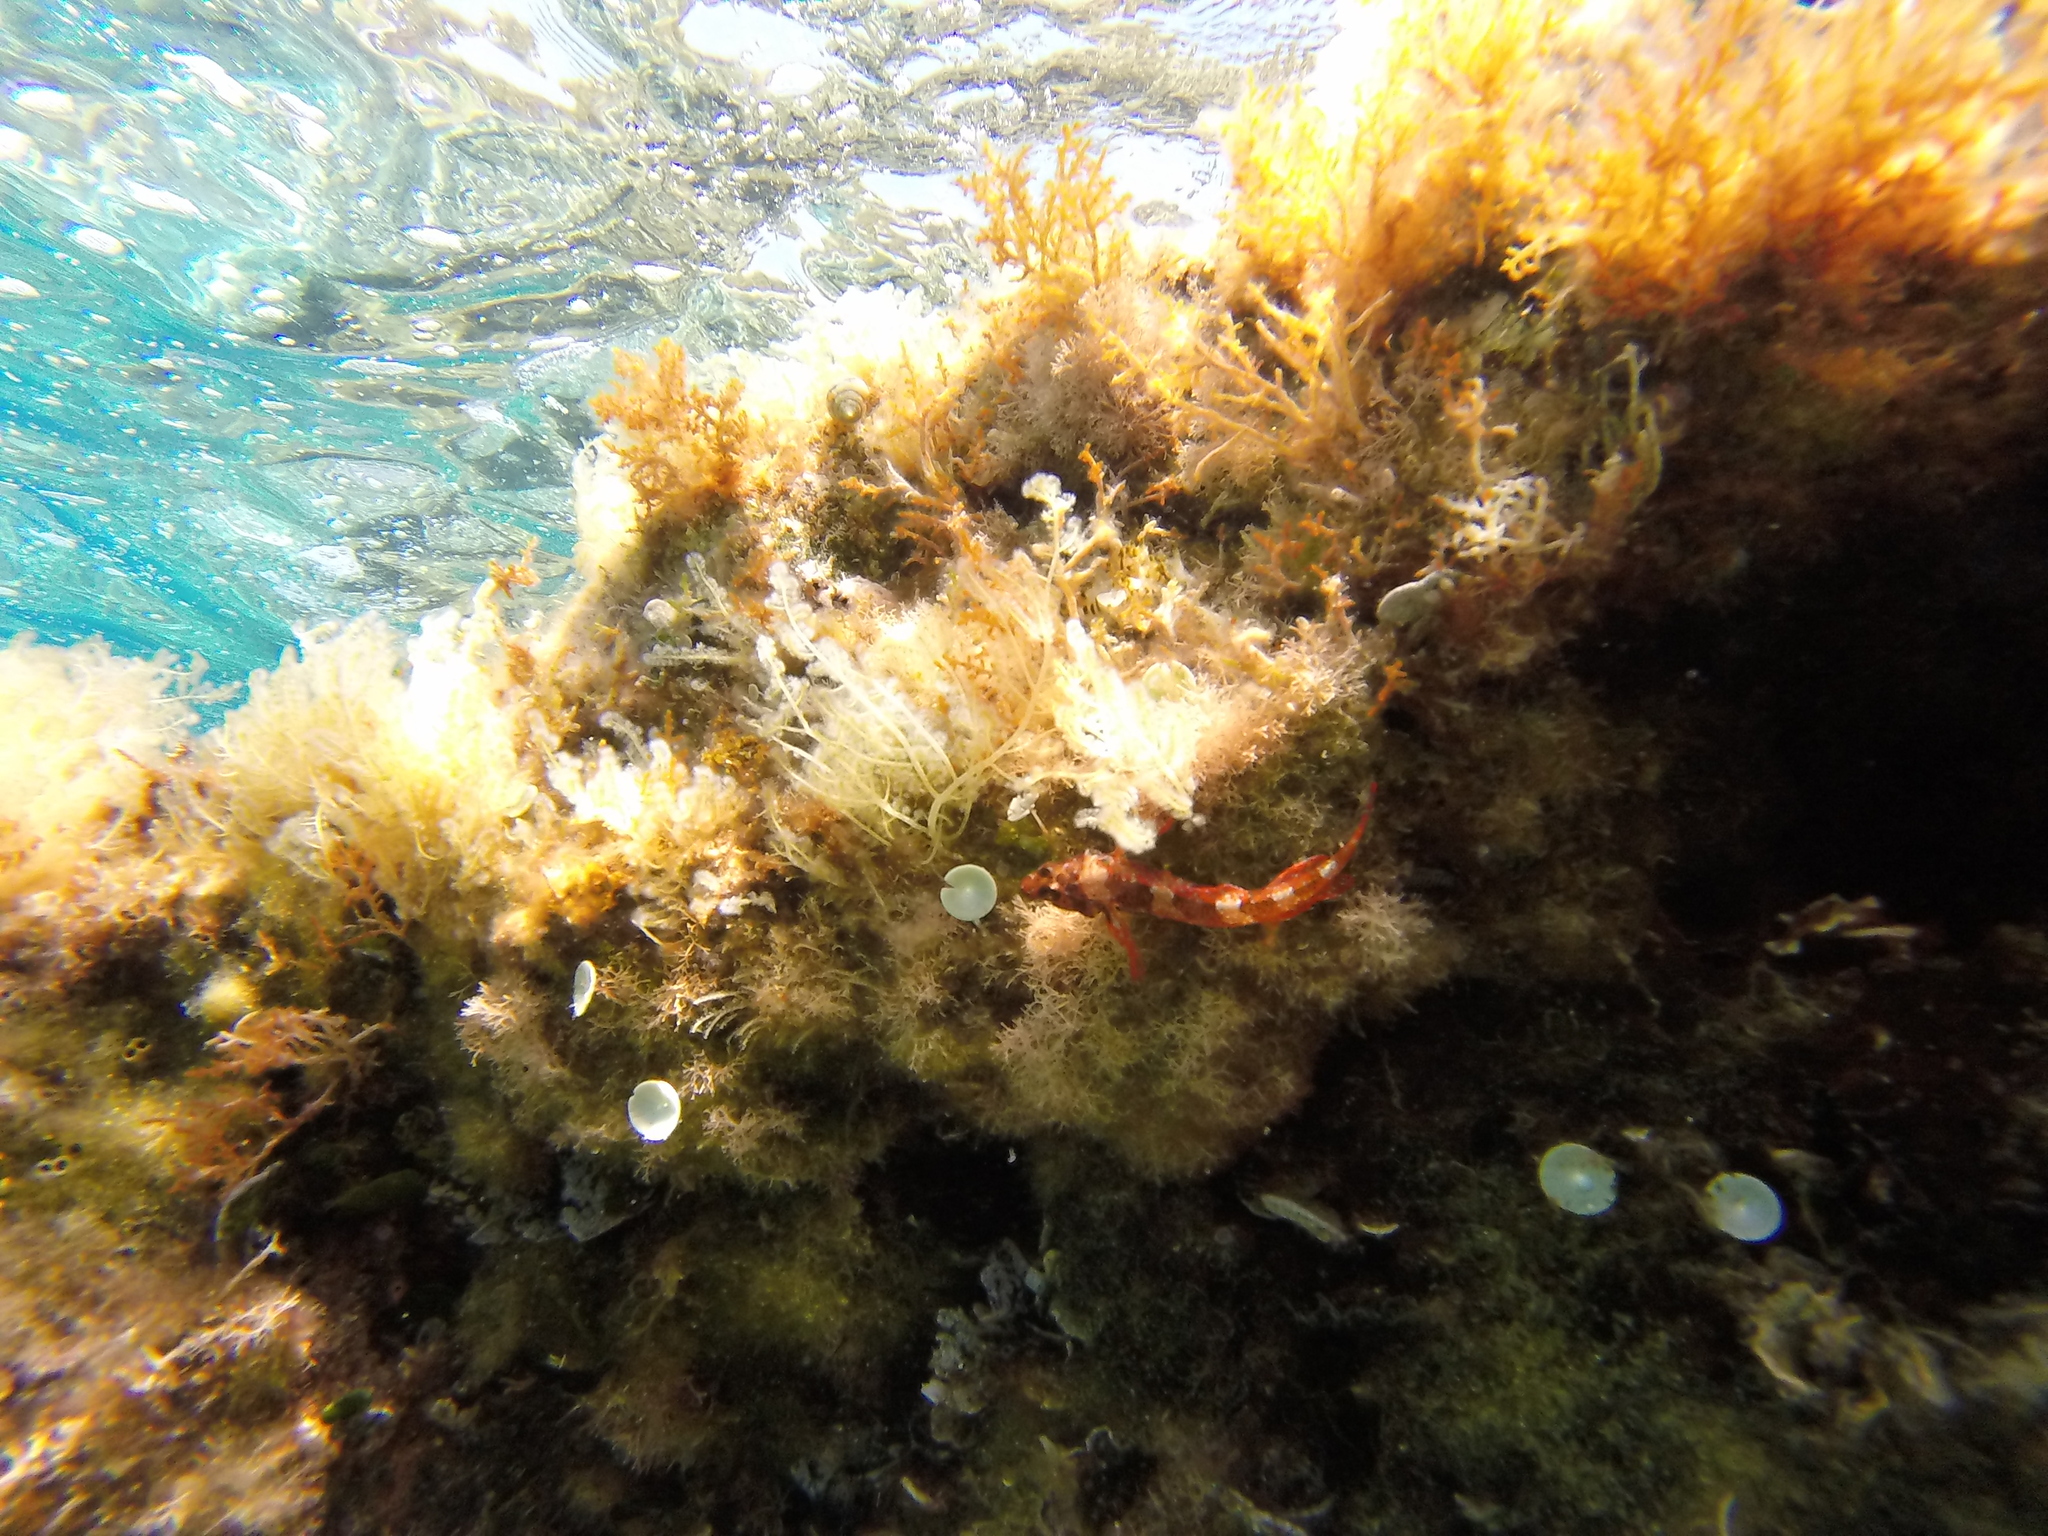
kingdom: Animalia
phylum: Chordata
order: Perciformes
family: Tripterygiidae
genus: Tripterygion
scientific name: Tripterygion tripteronotum
